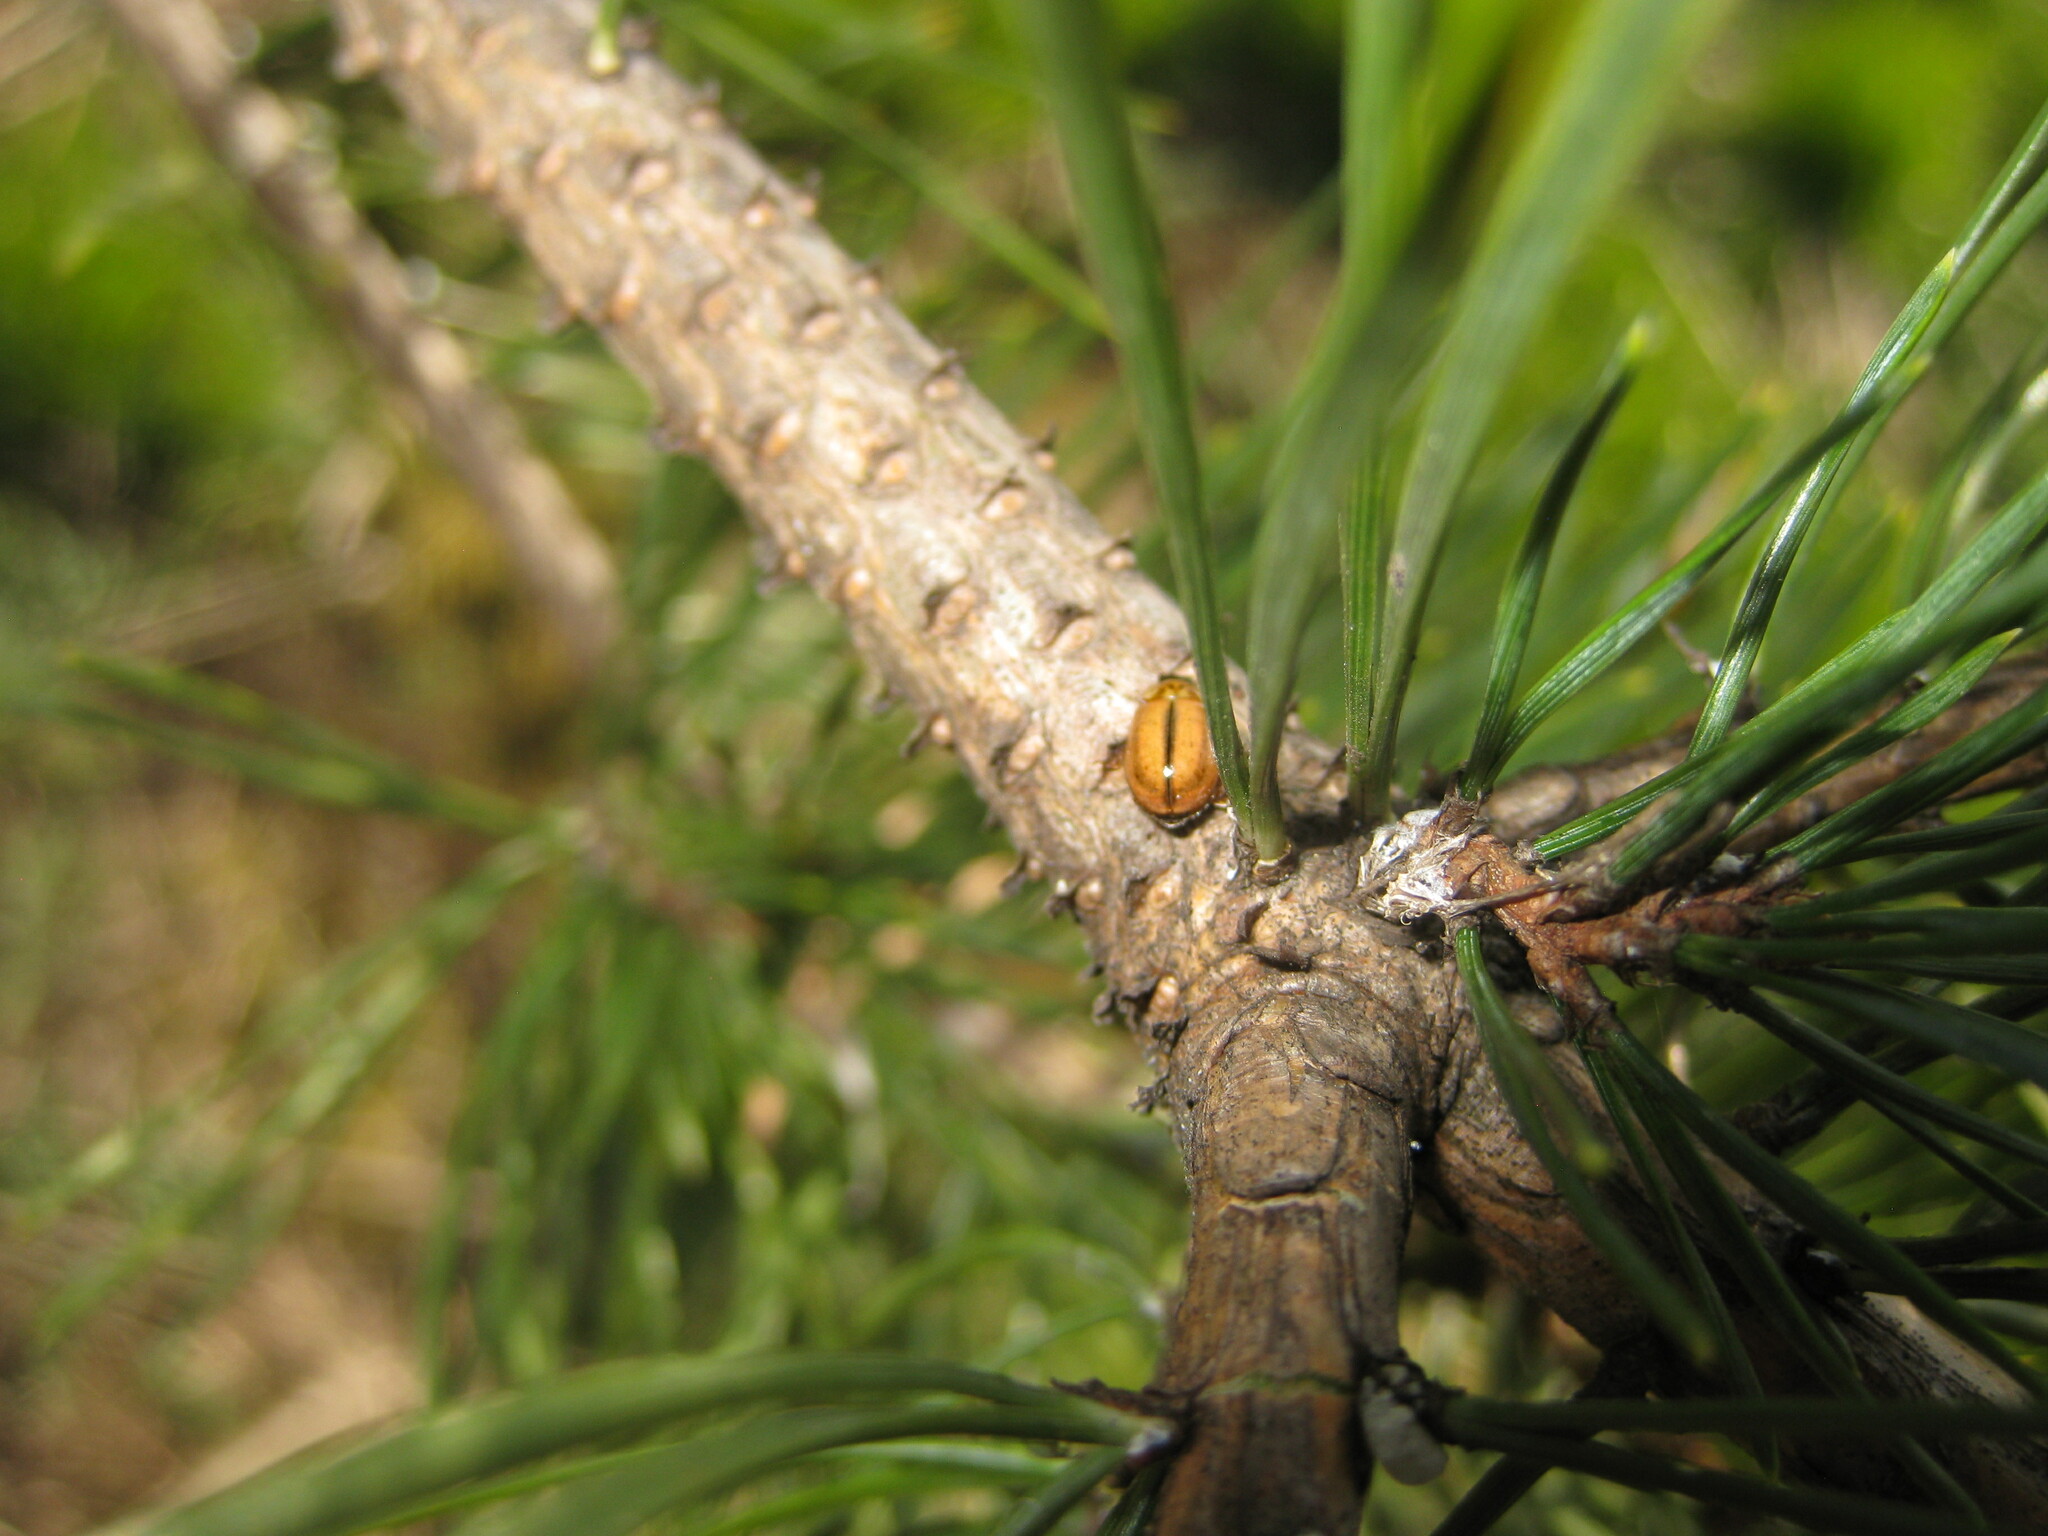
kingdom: Animalia
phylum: Arthropoda
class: Insecta
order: Coleoptera
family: Coccinellidae
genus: Aphidecta
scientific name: Aphidecta obliterata
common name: Larch ladybird
